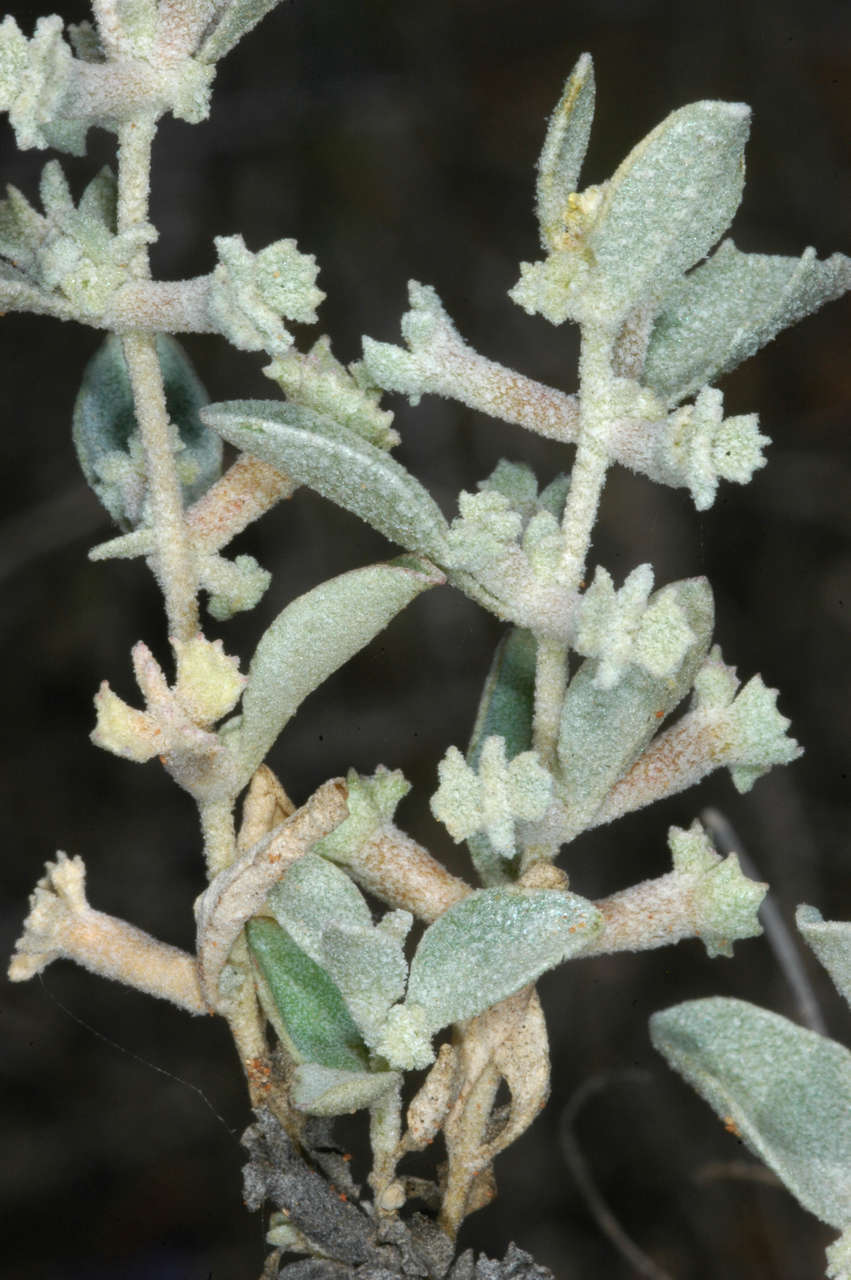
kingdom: Plantae
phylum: Tracheophyta
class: Magnoliopsida
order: Caryophyllales
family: Amaranthaceae
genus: Atriplex
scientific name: Atriplex limbata
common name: Spreading saltbush
